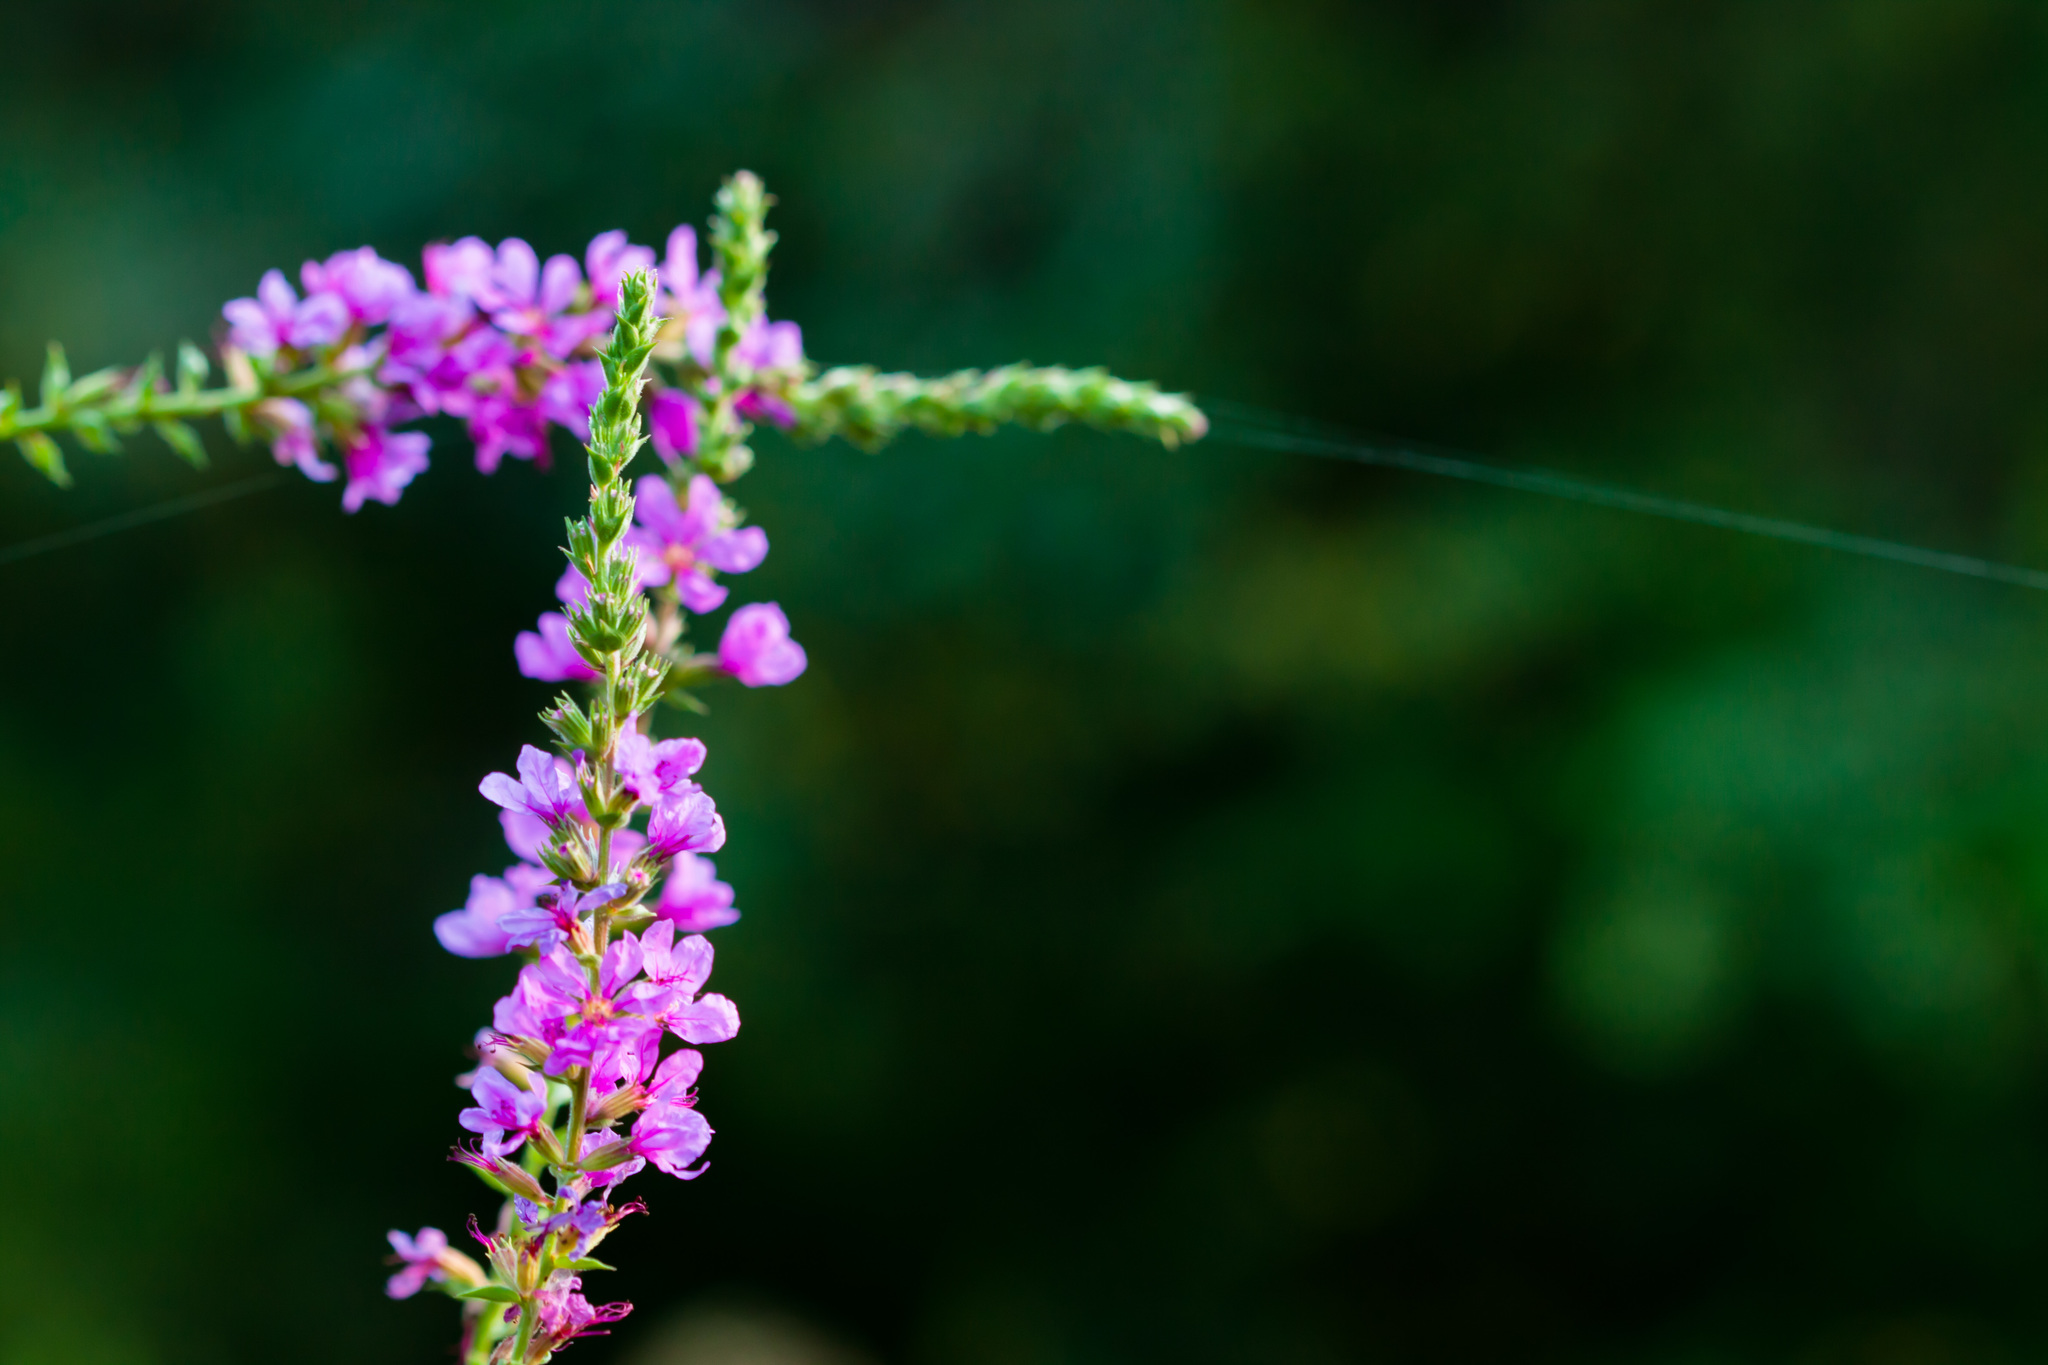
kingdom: Plantae
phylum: Tracheophyta
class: Magnoliopsida
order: Myrtales
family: Lythraceae
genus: Lythrum
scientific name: Lythrum salicaria
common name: Purple loosestrife
